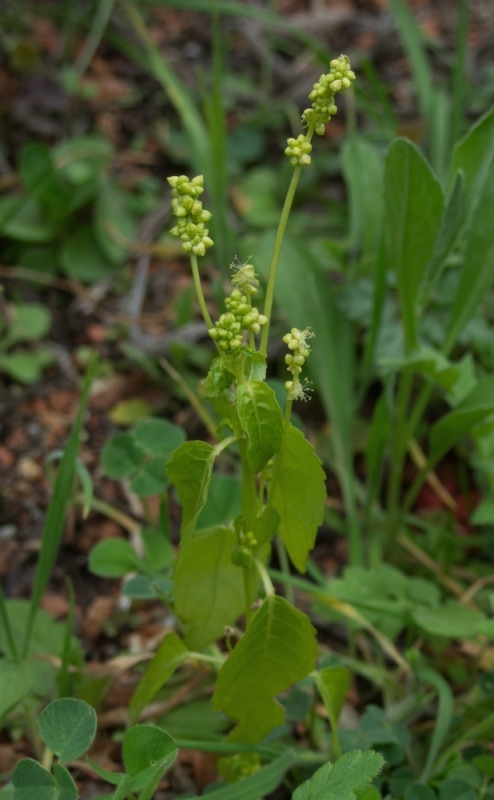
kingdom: Plantae
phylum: Tracheophyta
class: Magnoliopsida
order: Malpighiales
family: Euphorbiaceae
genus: Mercurialis
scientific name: Mercurialis annua
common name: Annual mercury
